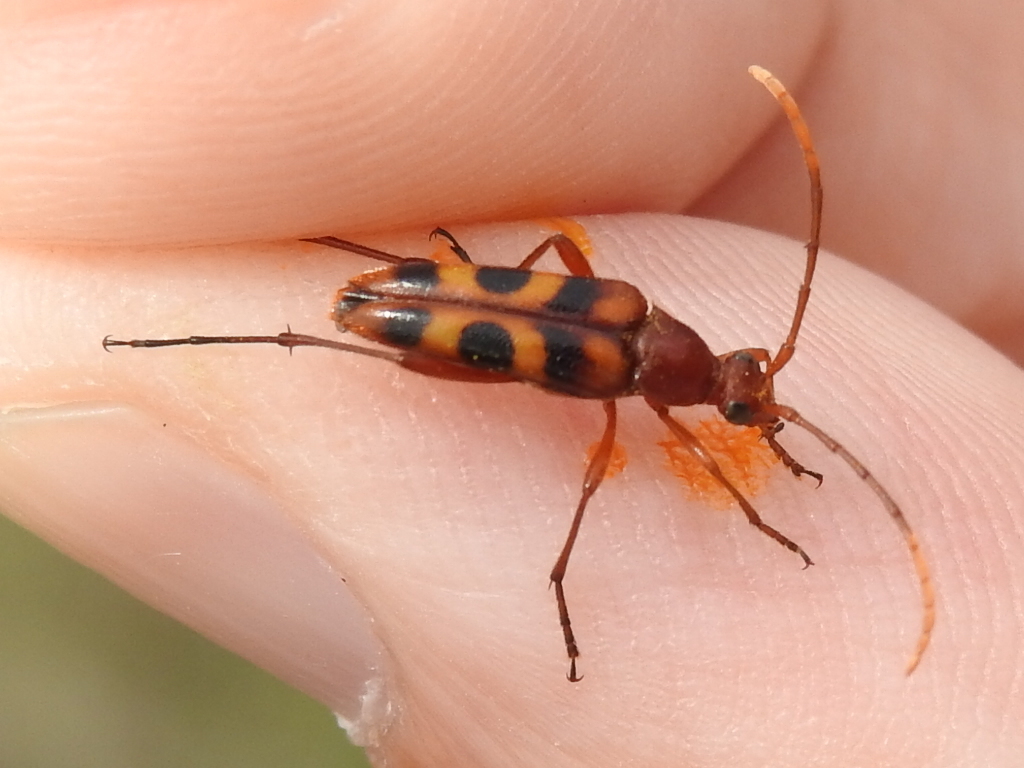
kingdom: Animalia
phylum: Arthropoda
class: Insecta
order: Coleoptera
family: Cerambycidae
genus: Strangalia
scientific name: Strangalia sexnotata
